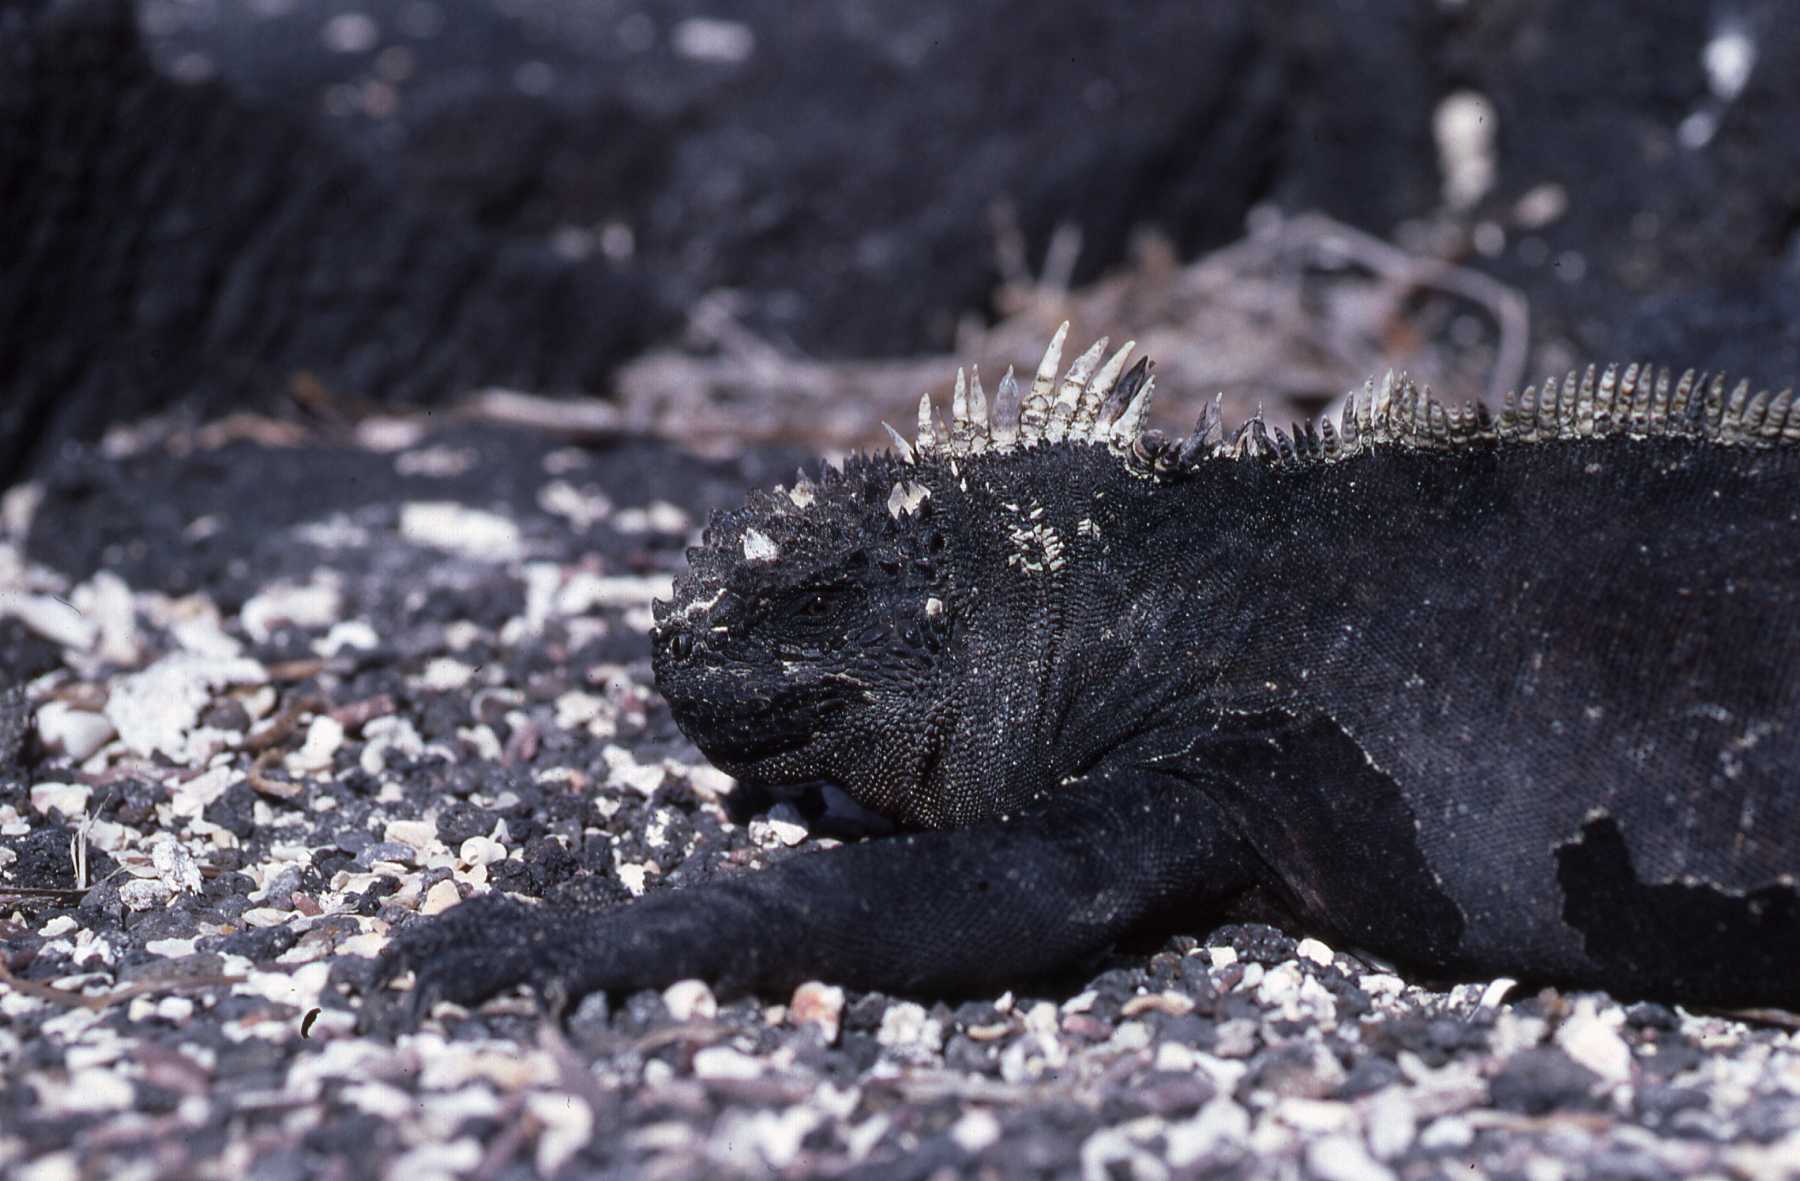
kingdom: Animalia
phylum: Chordata
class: Squamata
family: Iguanidae
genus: Amblyrhynchus
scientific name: Amblyrhynchus cristatus
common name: Marine iguana
